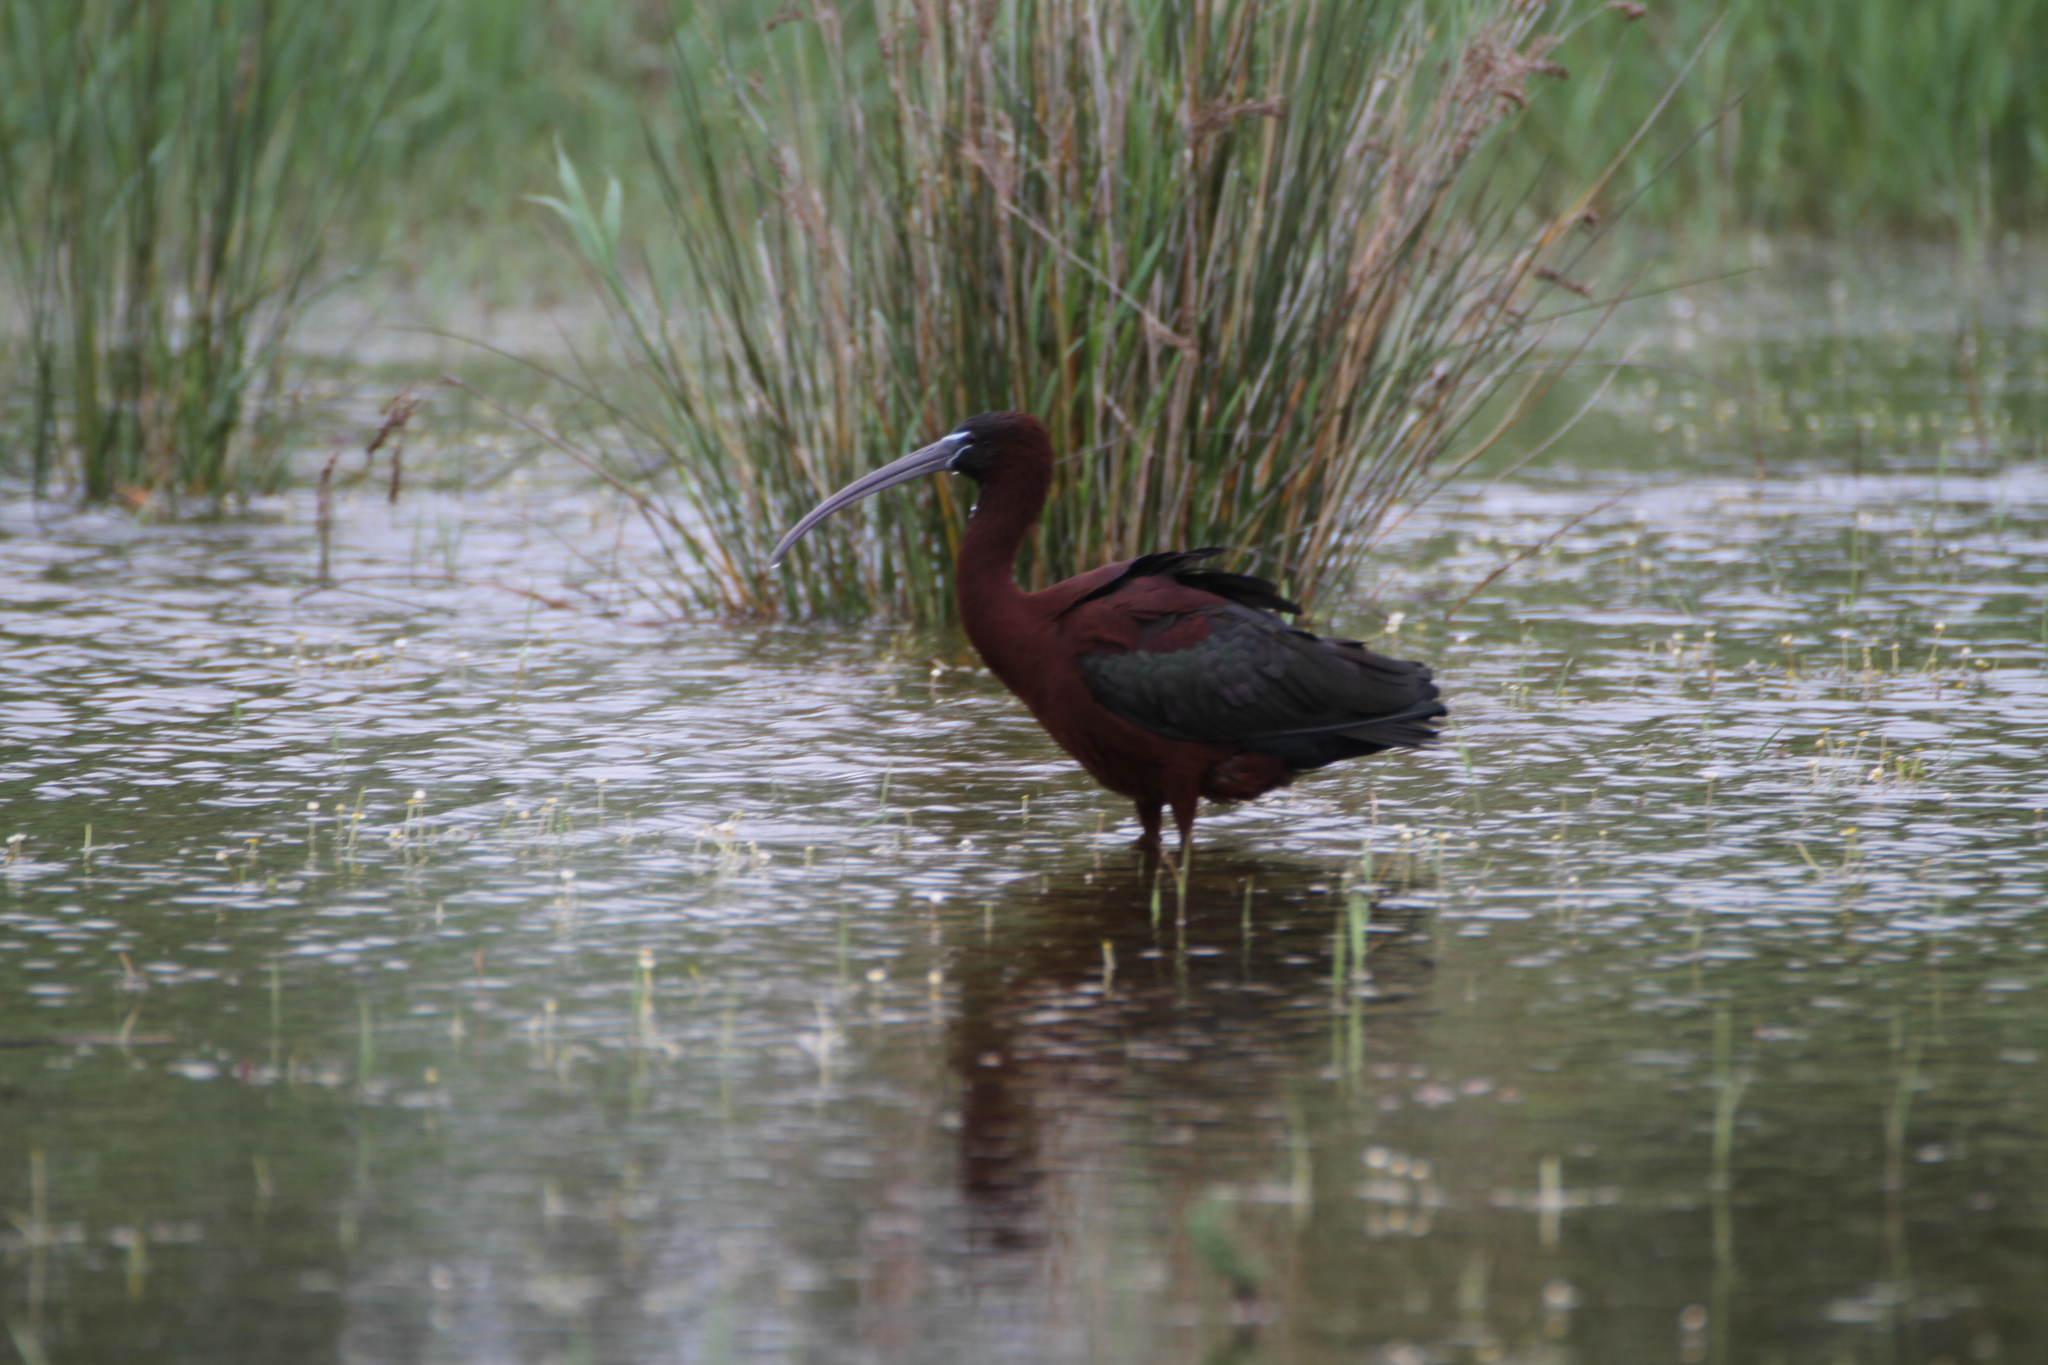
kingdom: Animalia
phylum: Chordata
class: Aves
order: Pelecaniformes
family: Threskiornithidae
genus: Plegadis
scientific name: Plegadis falcinellus
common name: Glossy ibis
